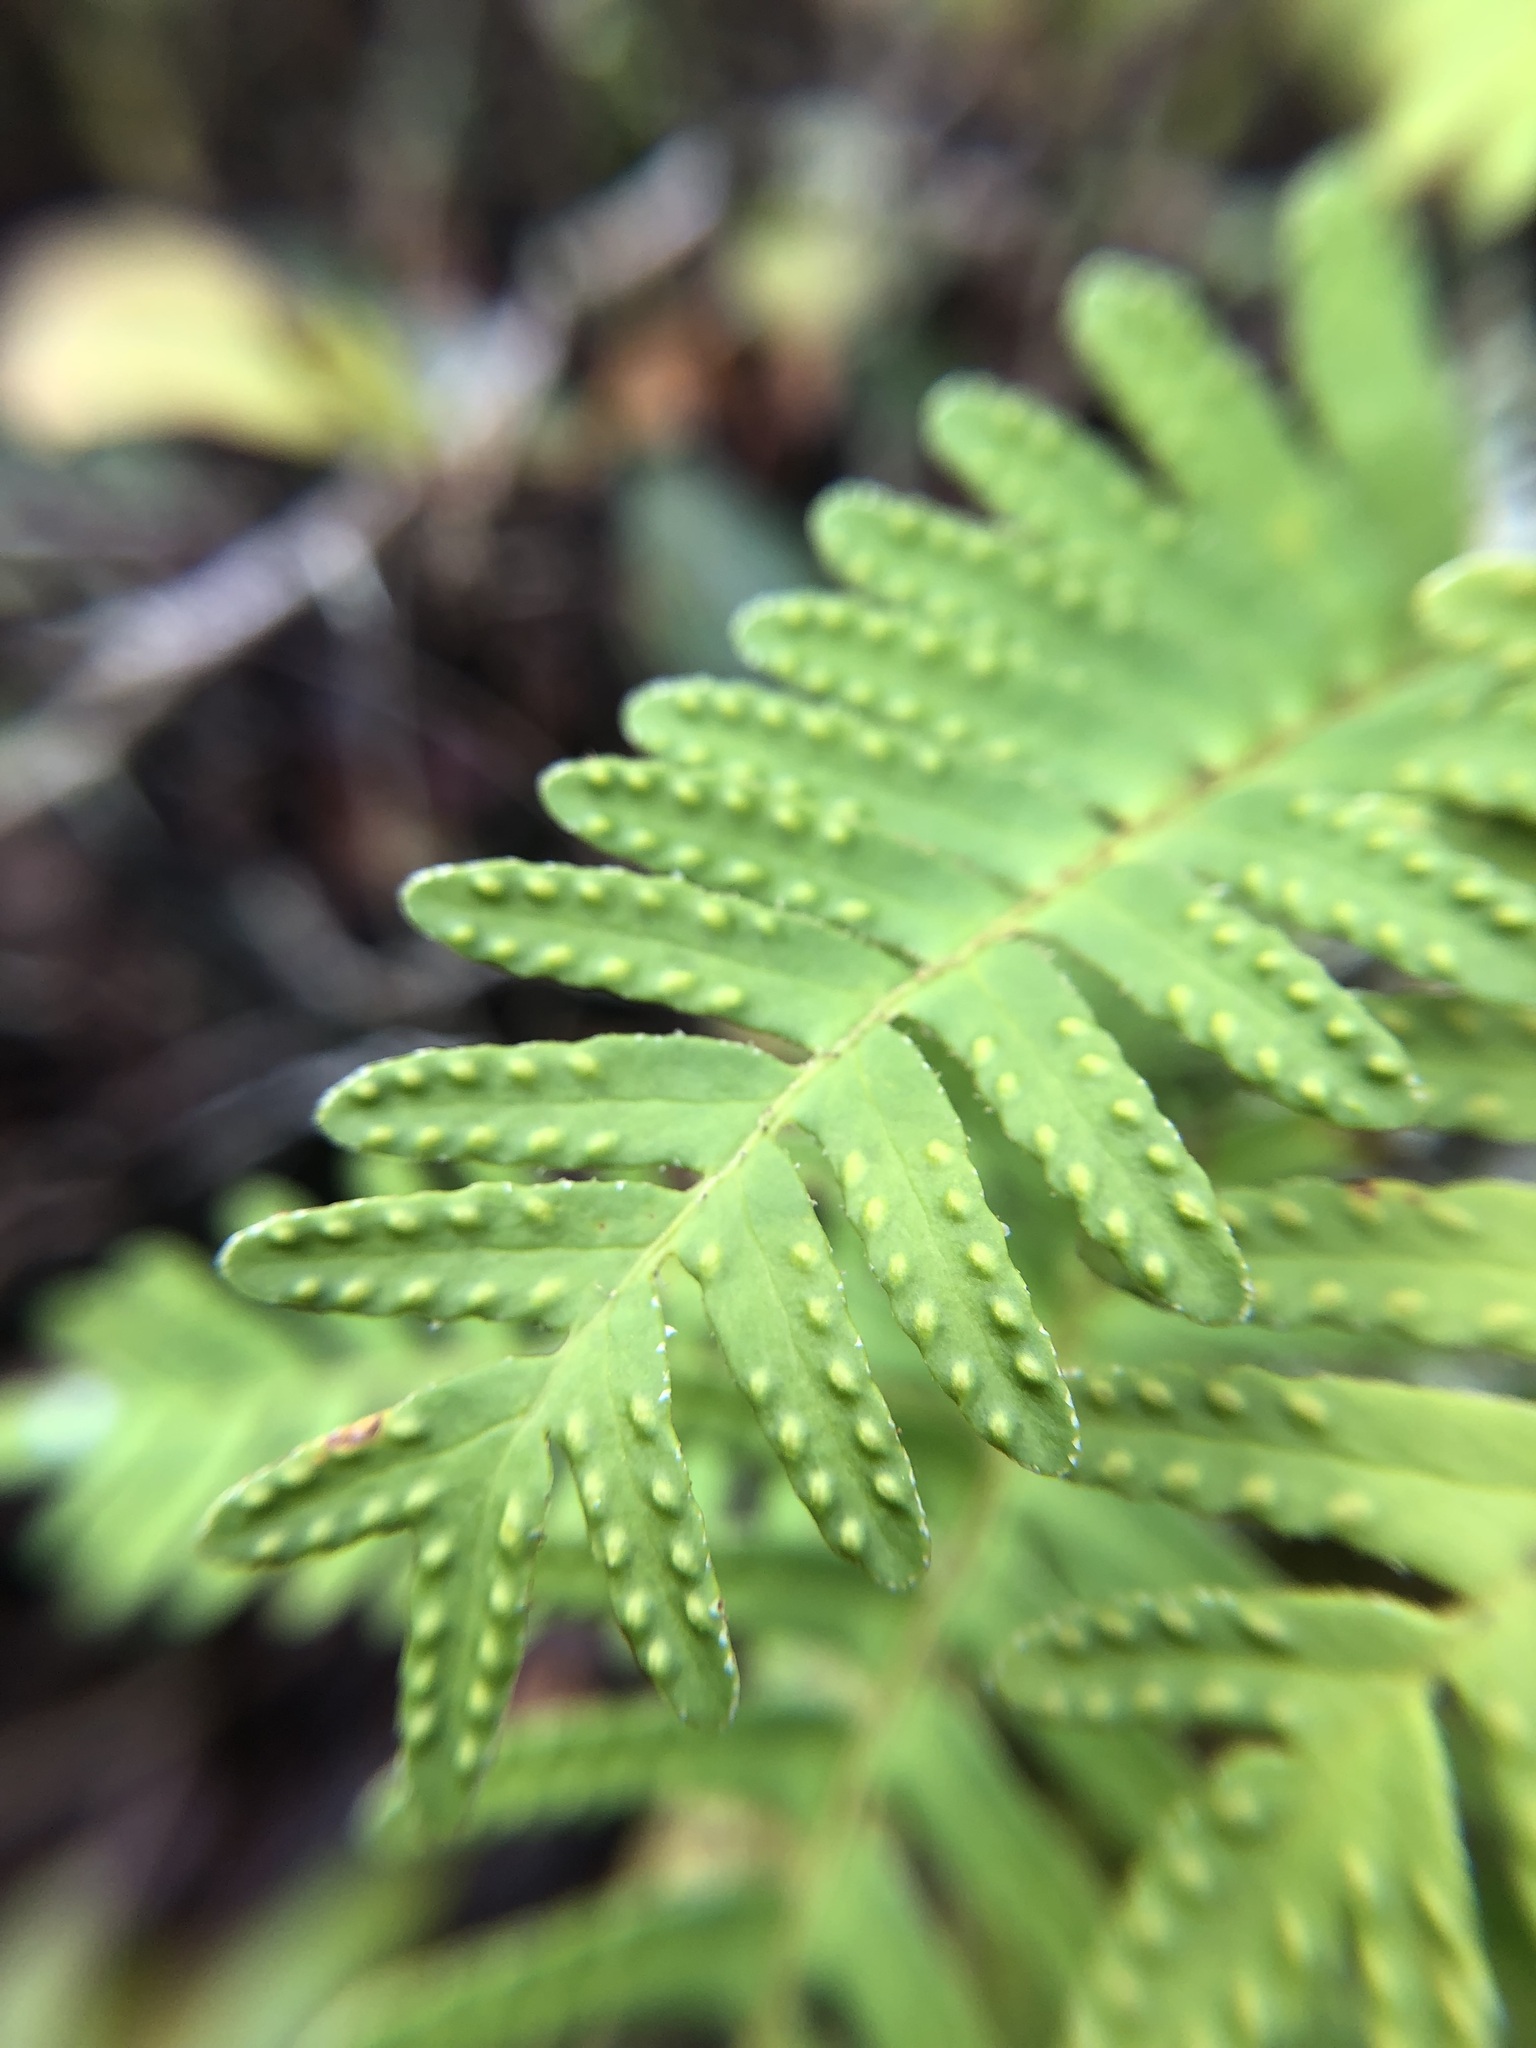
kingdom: Plantae
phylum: Tracheophyta
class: Polypodiopsida
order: Polypodiales
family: Polypodiaceae
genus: Pleopeltis
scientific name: Pleopeltis michauxiana
